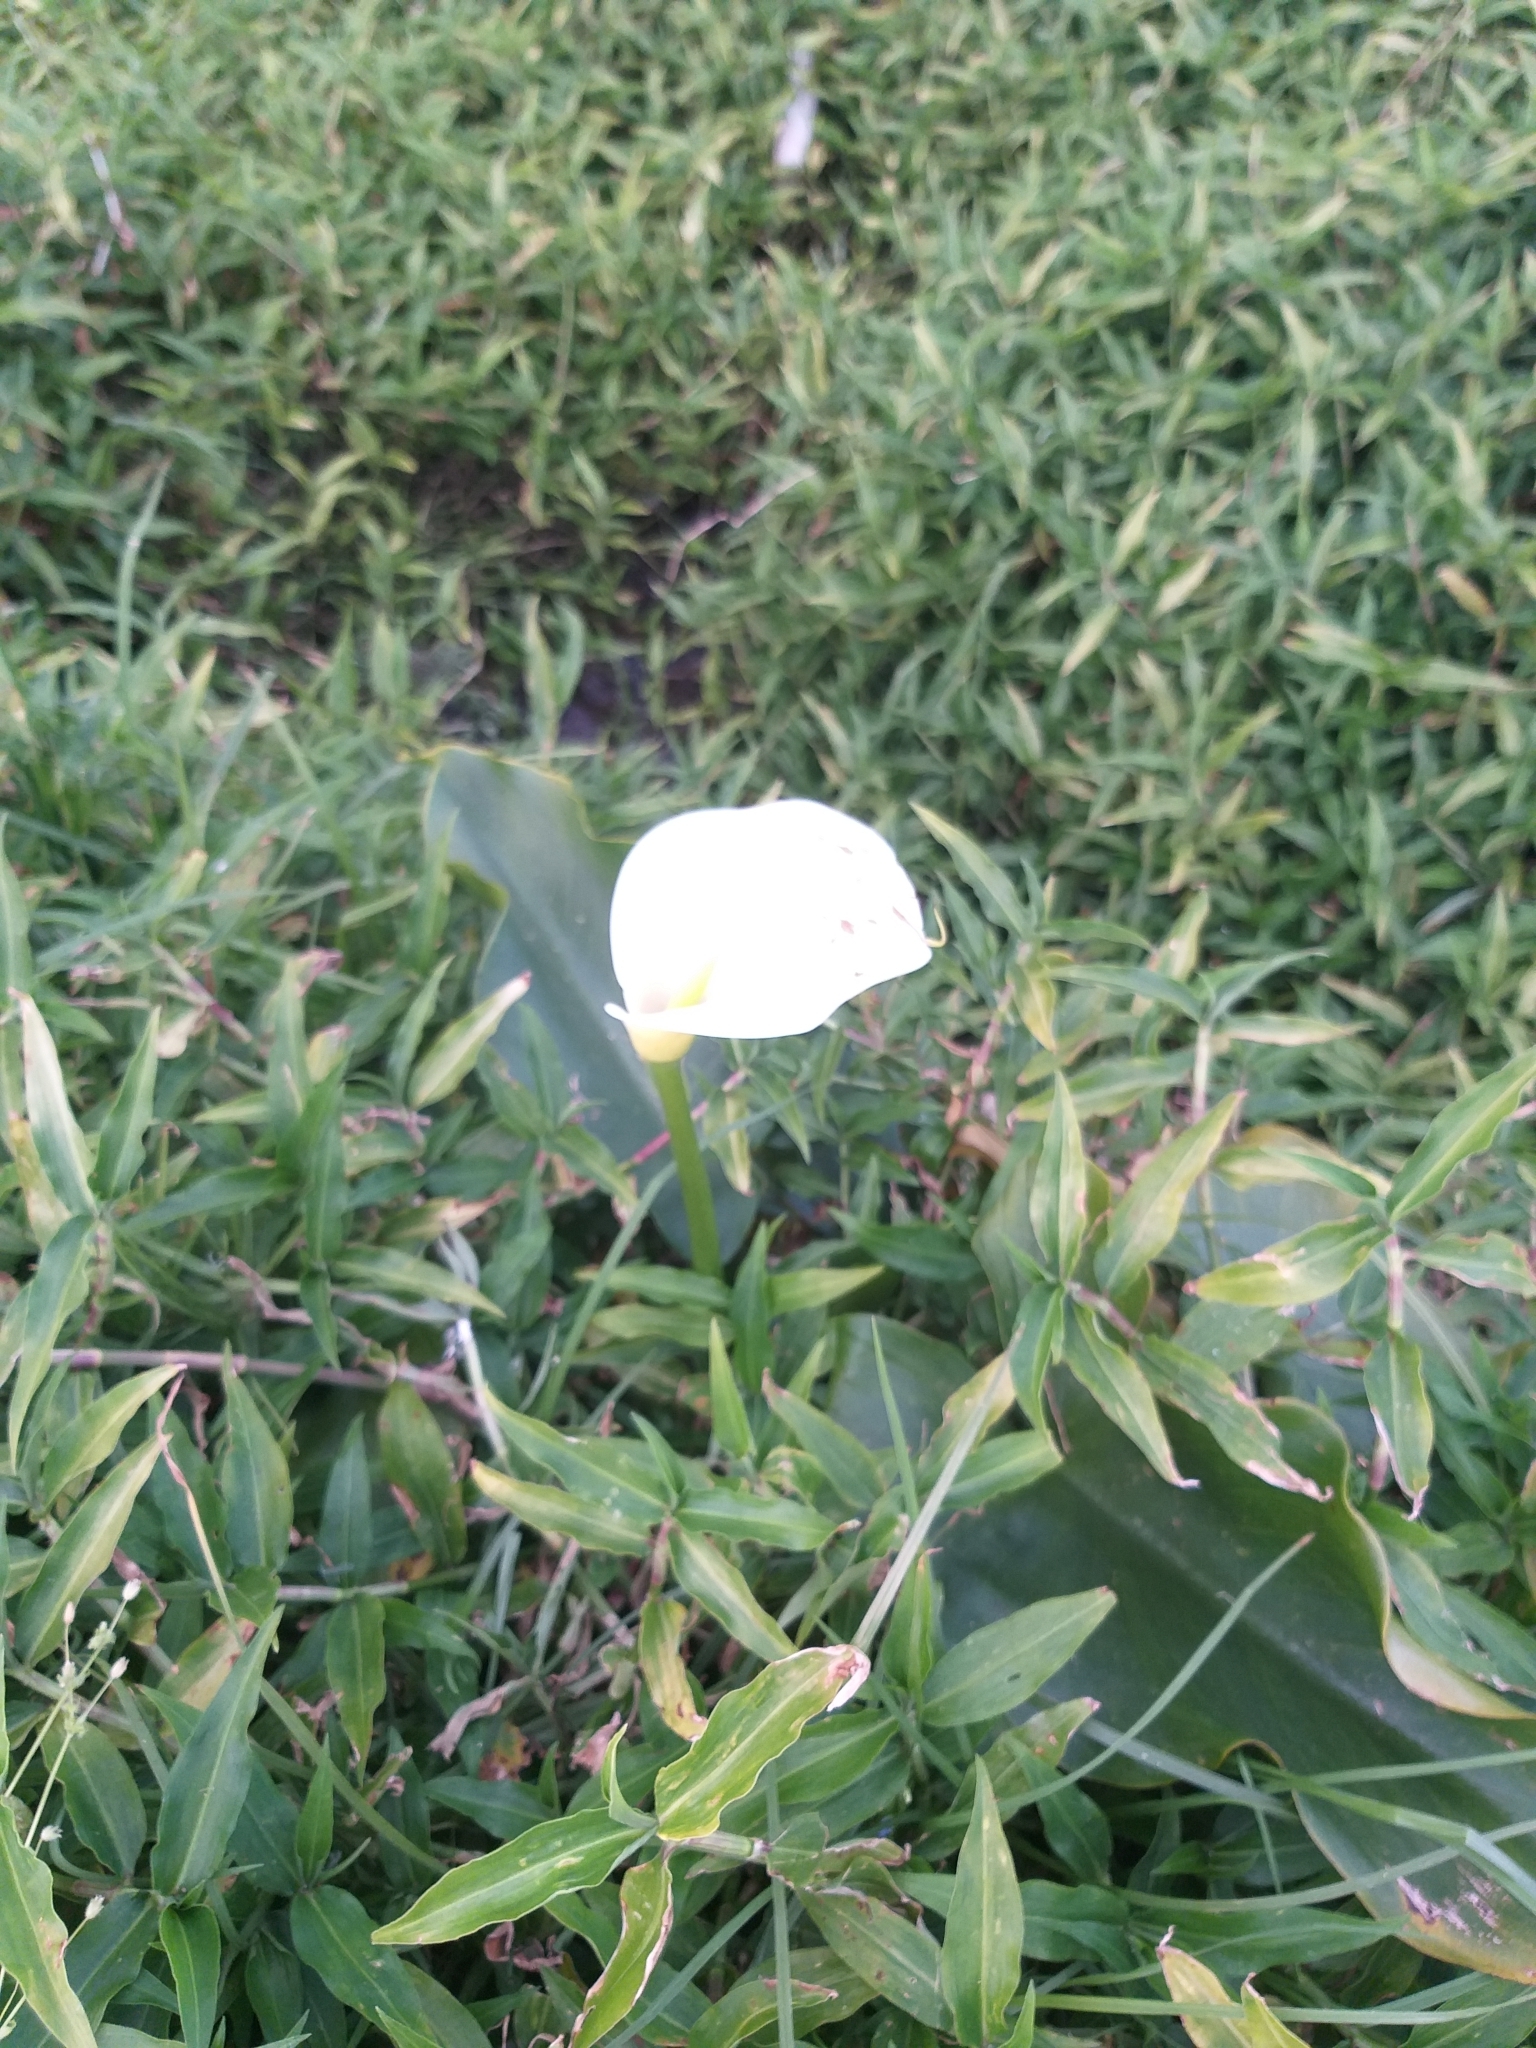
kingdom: Plantae
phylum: Tracheophyta
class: Liliopsida
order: Alismatales
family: Araceae
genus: Zantedeschia
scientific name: Zantedeschia aethiopica
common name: Altar-lily
